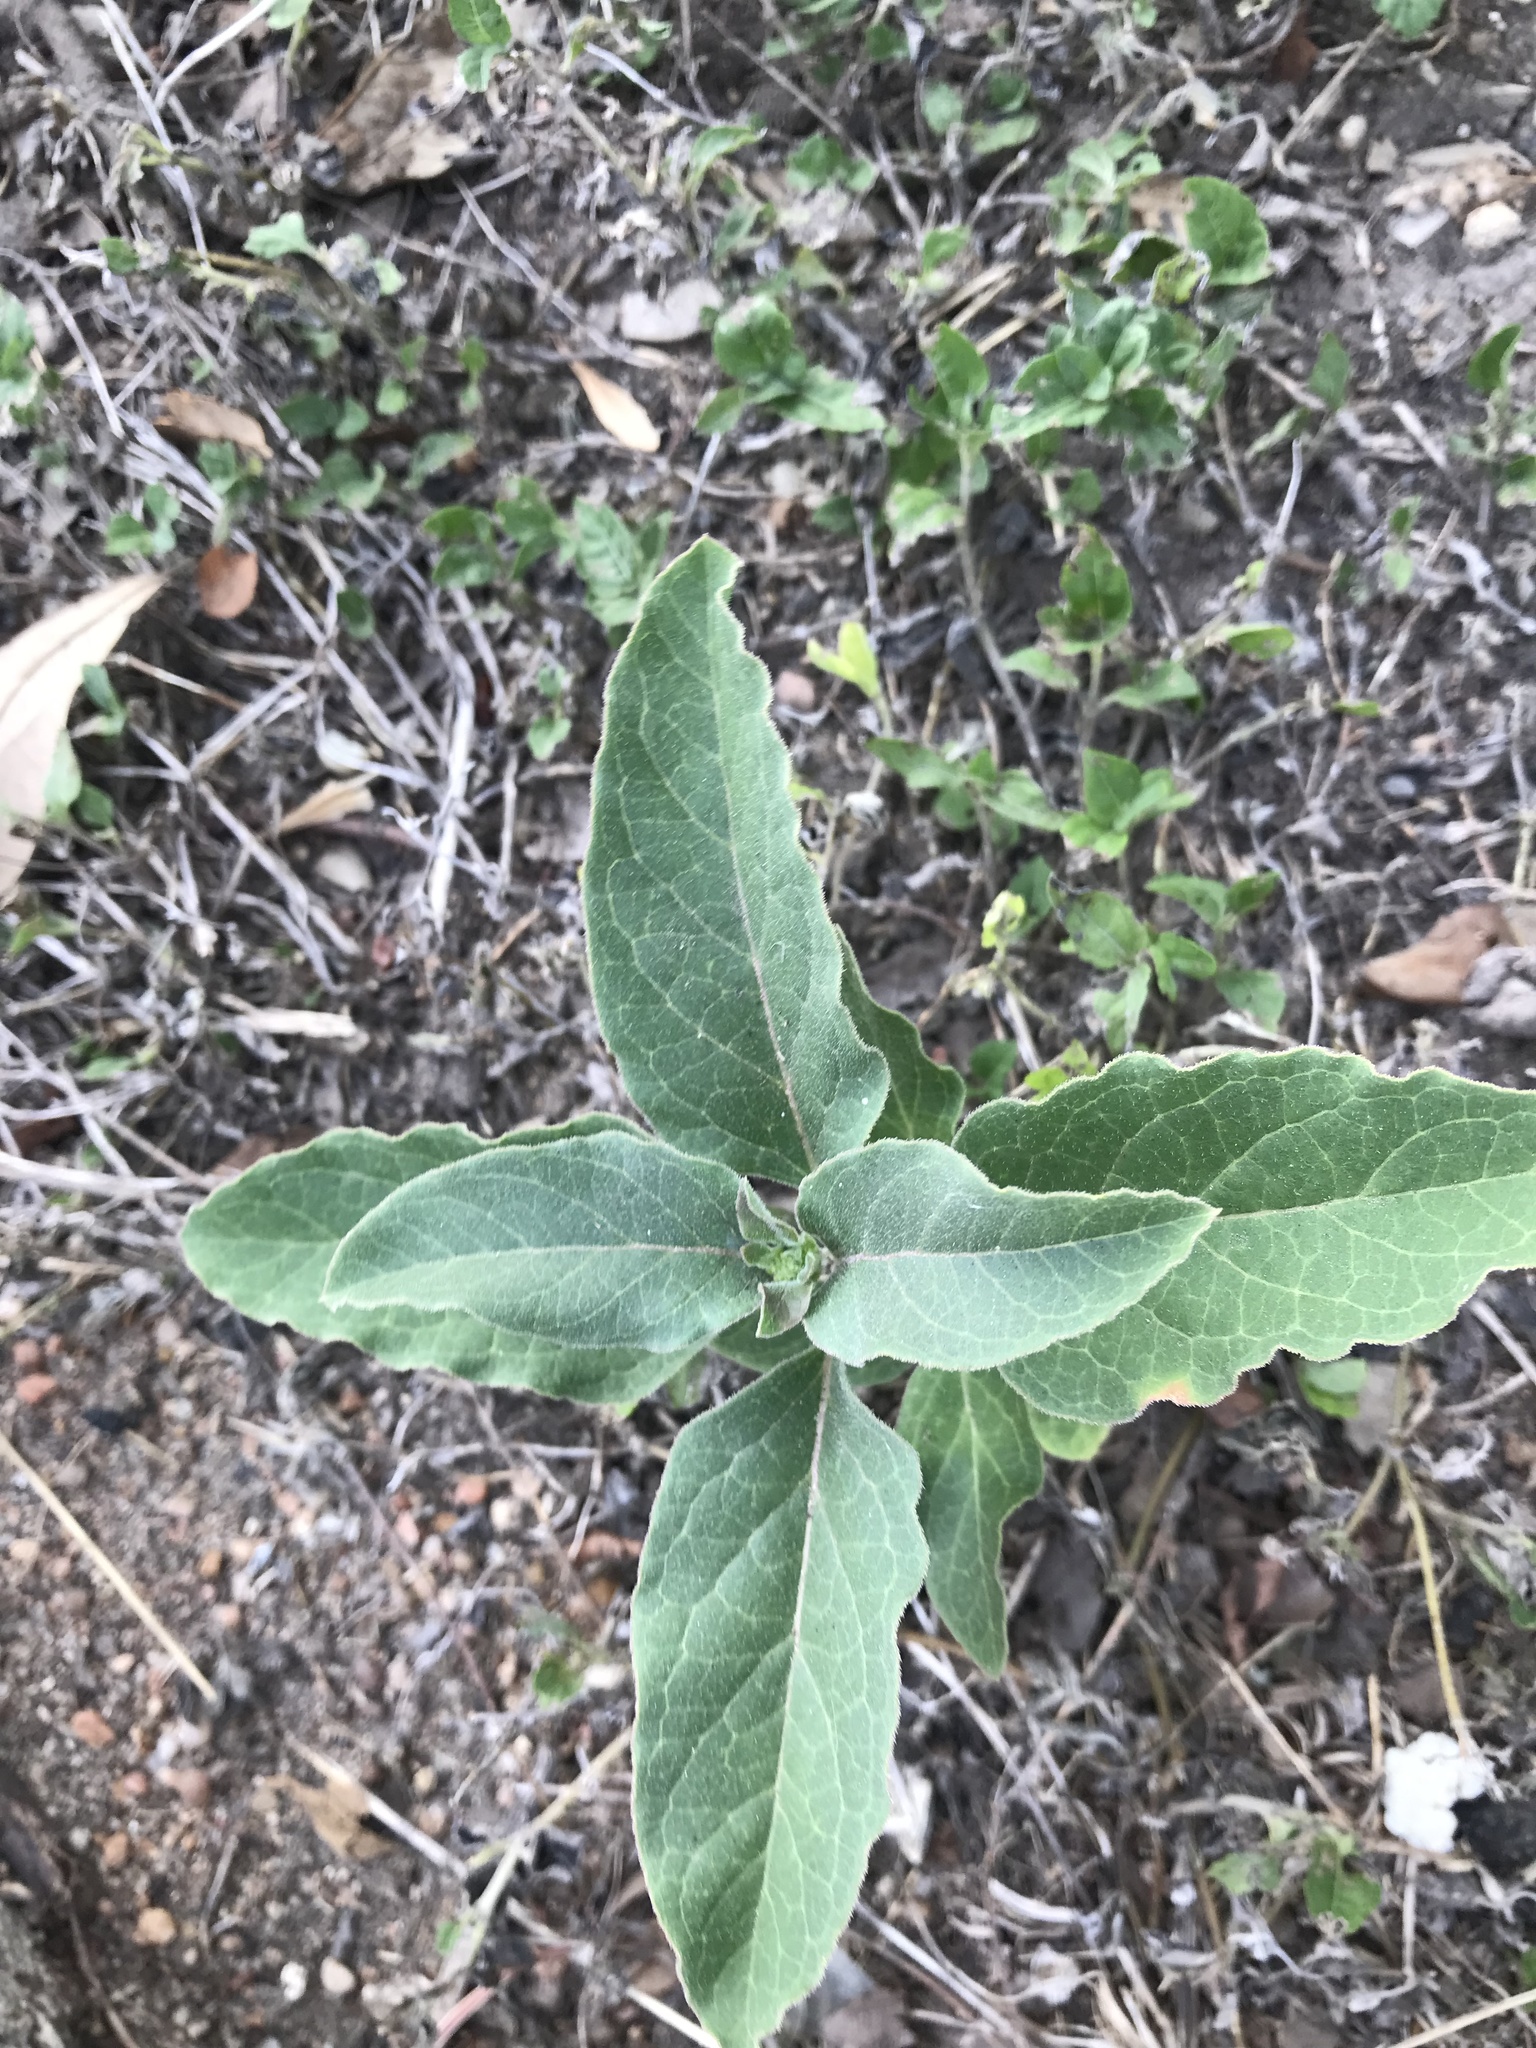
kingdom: Plantae
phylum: Tracheophyta
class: Magnoliopsida
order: Gentianales
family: Apocynaceae
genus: Asclepias
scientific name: Asclepias oenotheroides
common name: Zizotes milkweed
